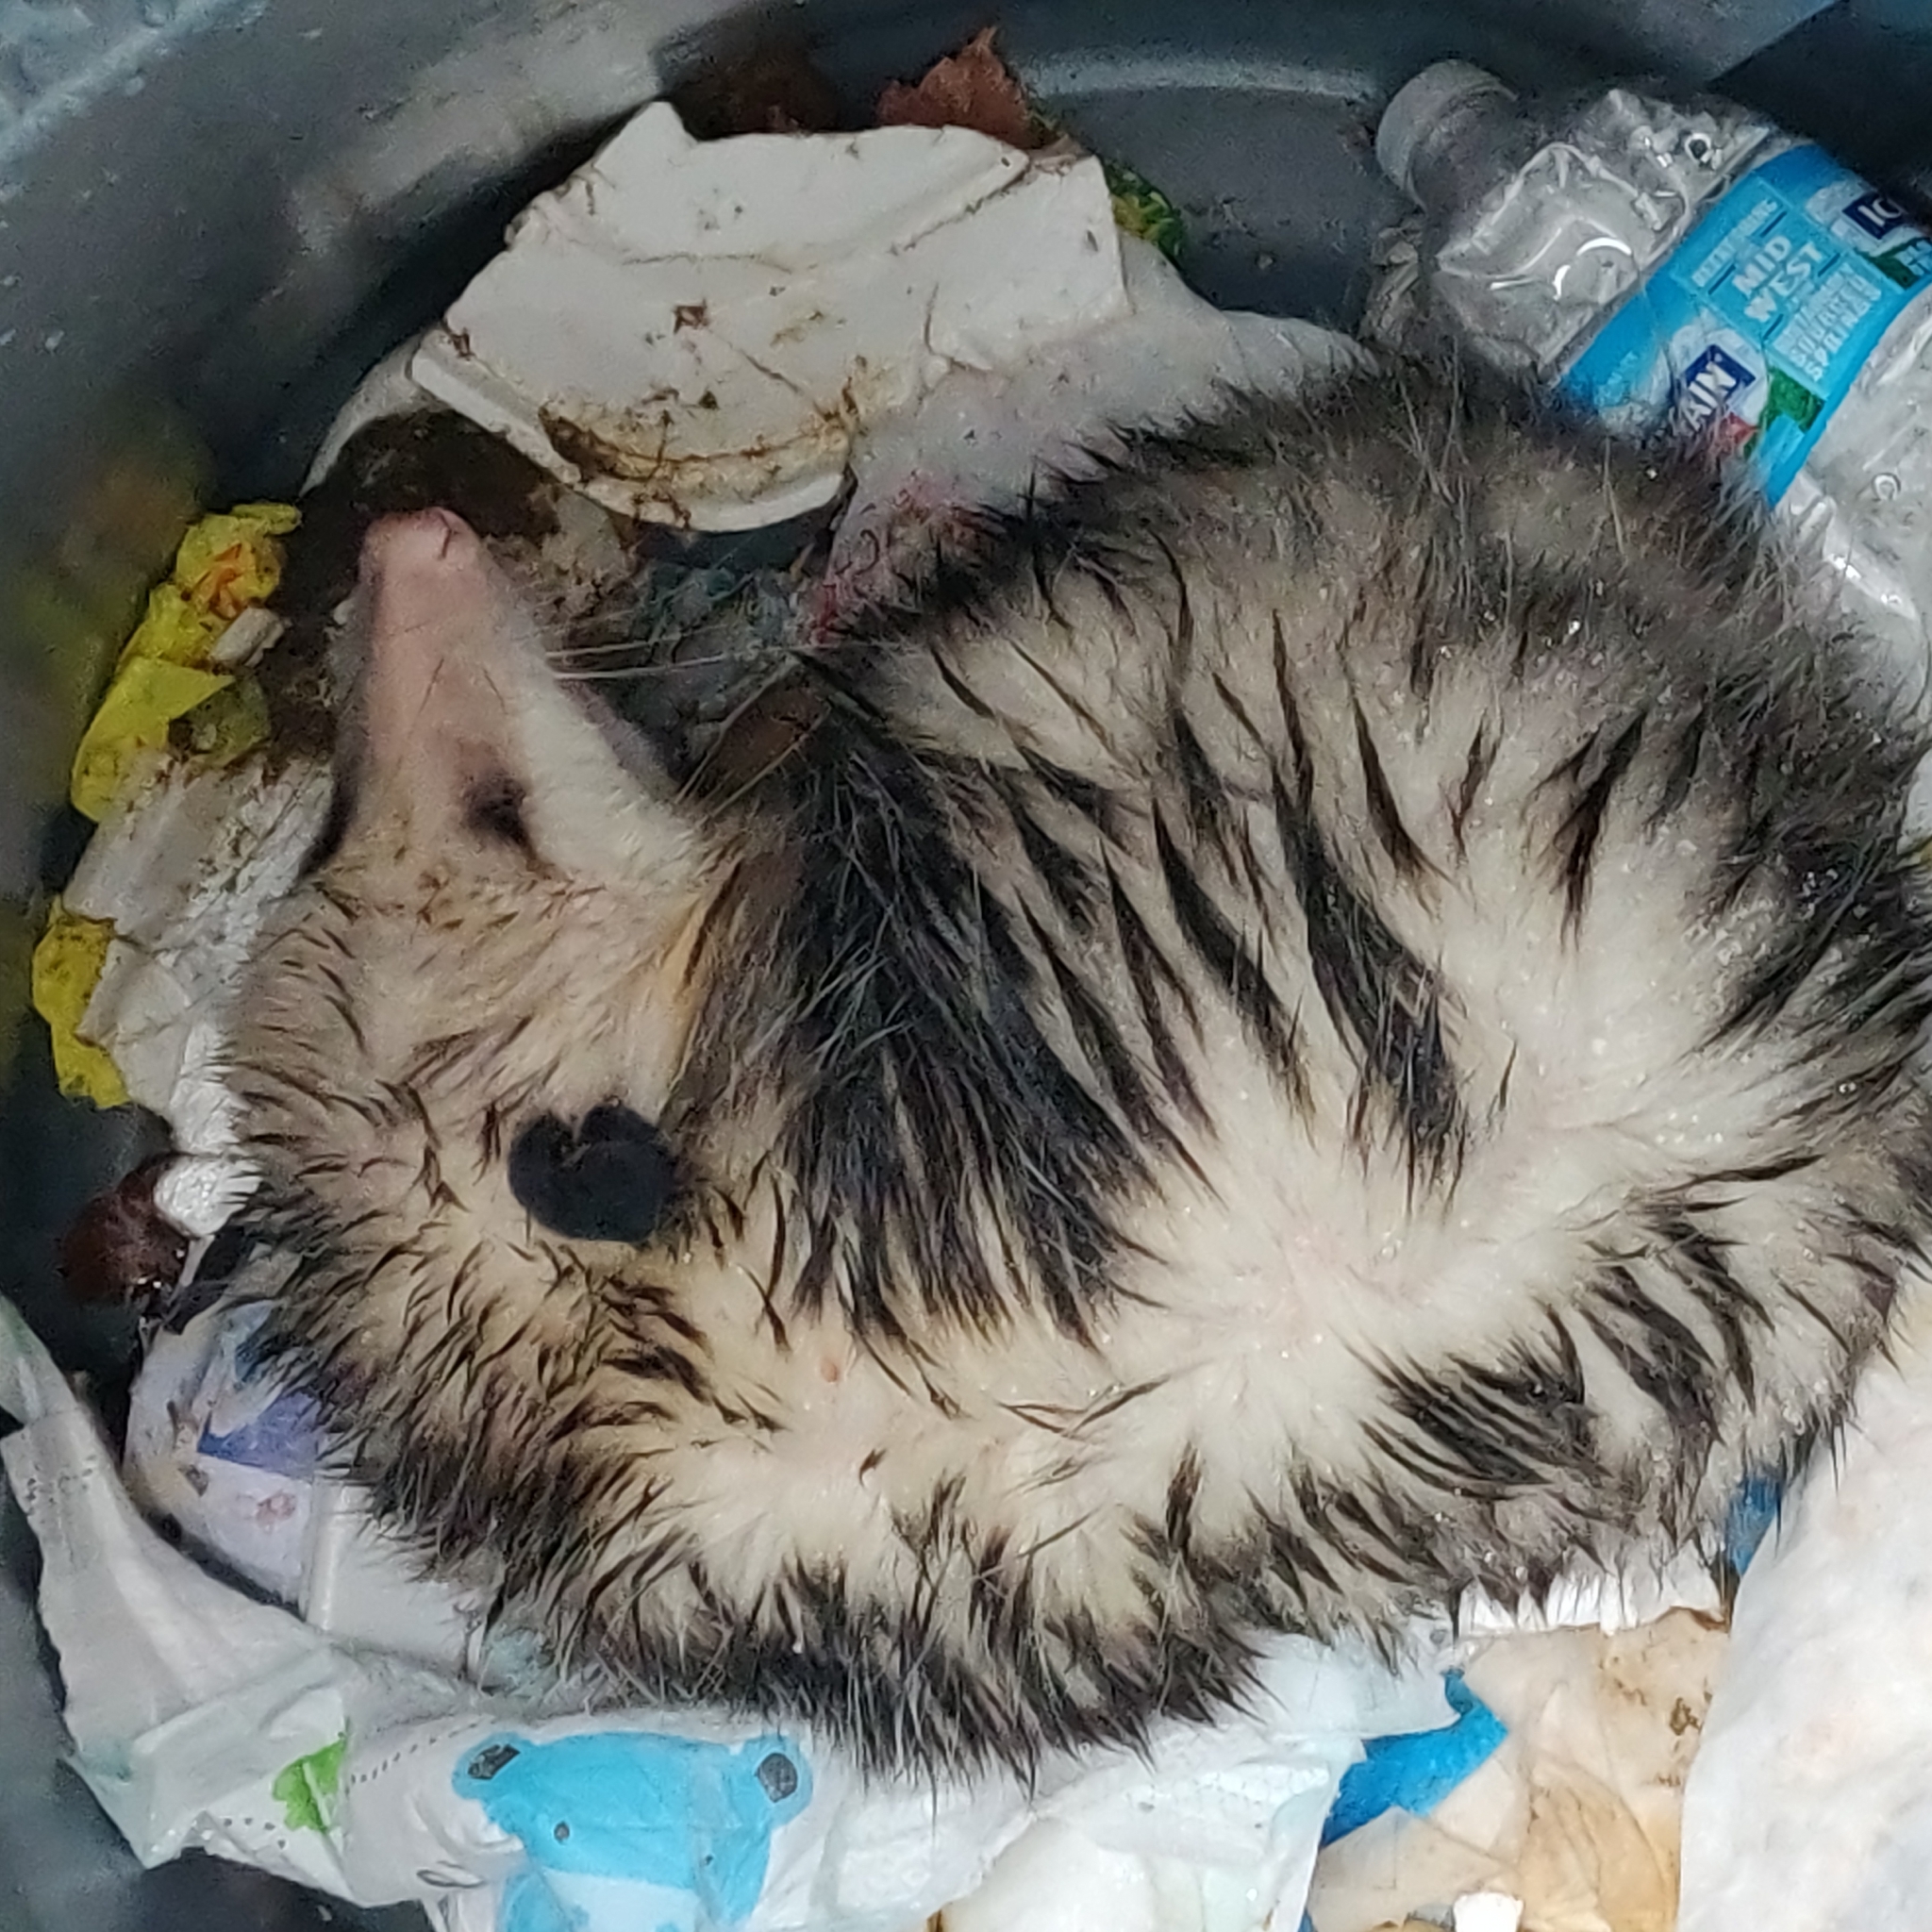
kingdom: Animalia
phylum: Chordata
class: Mammalia
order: Didelphimorphia
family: Didelphidae
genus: Didelphis
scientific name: Didelphis virginiana
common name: Virginia opossum
